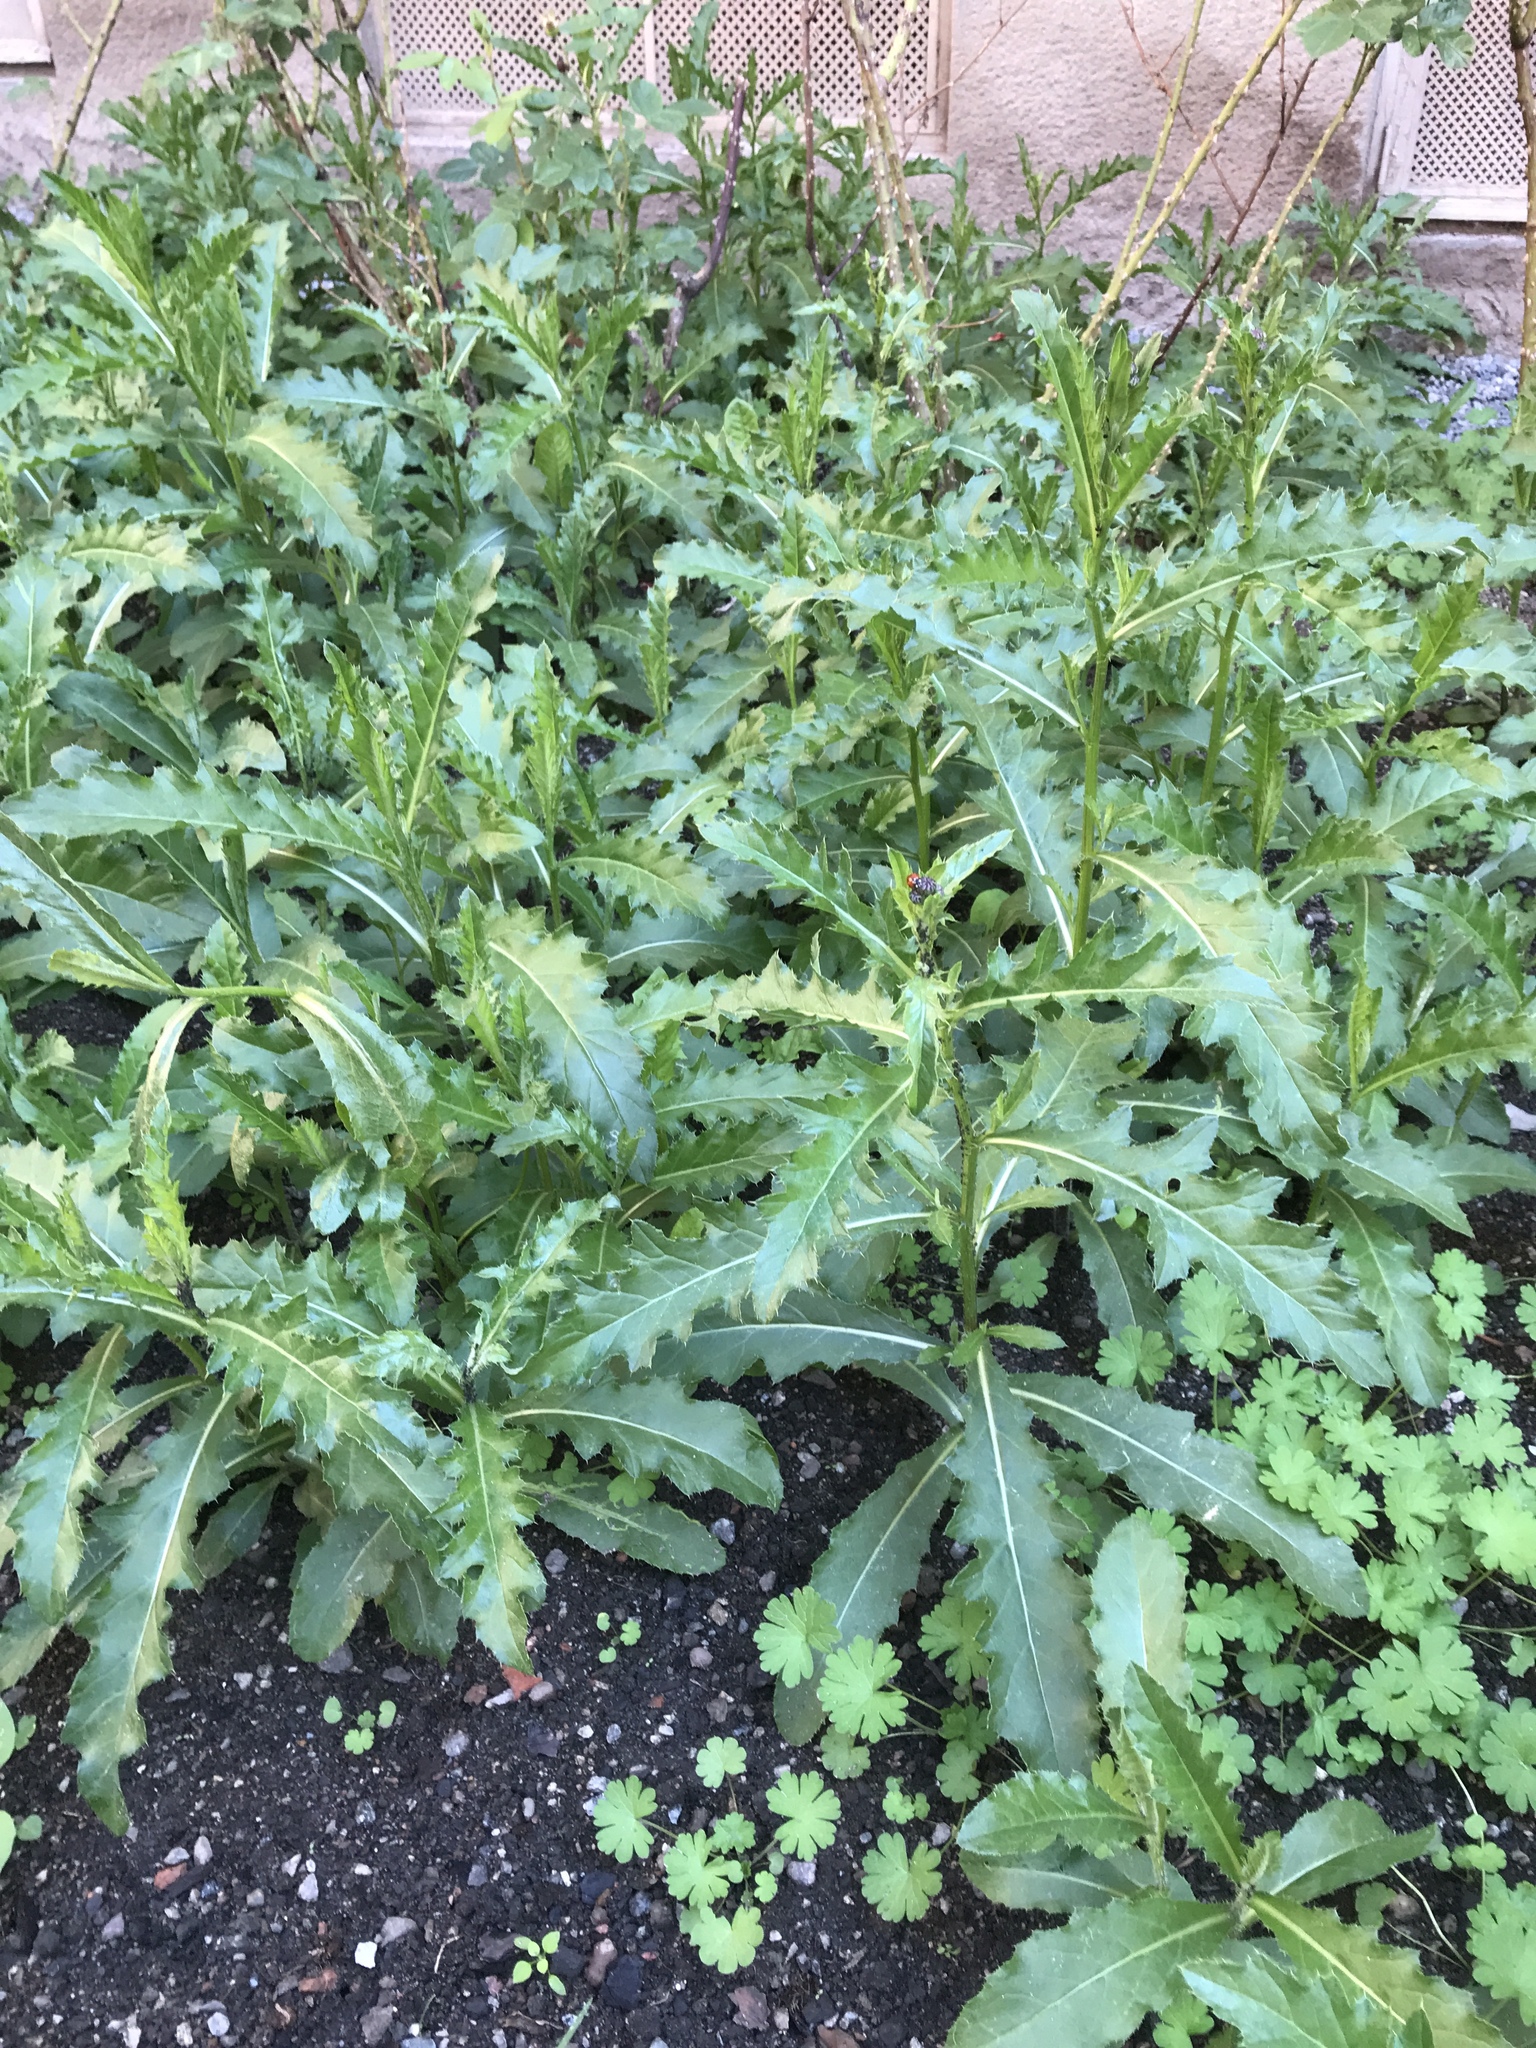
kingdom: Plantae
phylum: Tracheophyta
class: Magnoliopsida
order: Asterales
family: Asteraceae
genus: Cirsium
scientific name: Cirsium arvense
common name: Creeping thistle
